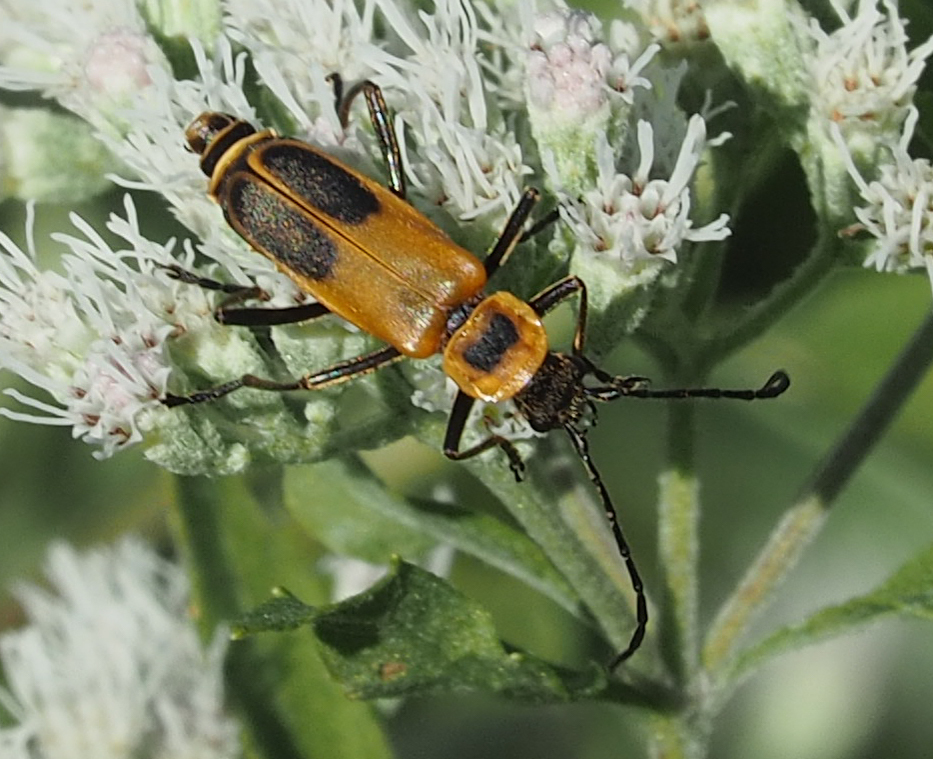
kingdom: Animalia
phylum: Arthropoda
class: Insecta
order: Coleoptera
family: Cantharidae
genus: Chauliognathus
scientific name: Chauliognathus pensylvanicus
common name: Goldenrod soldier beetle
